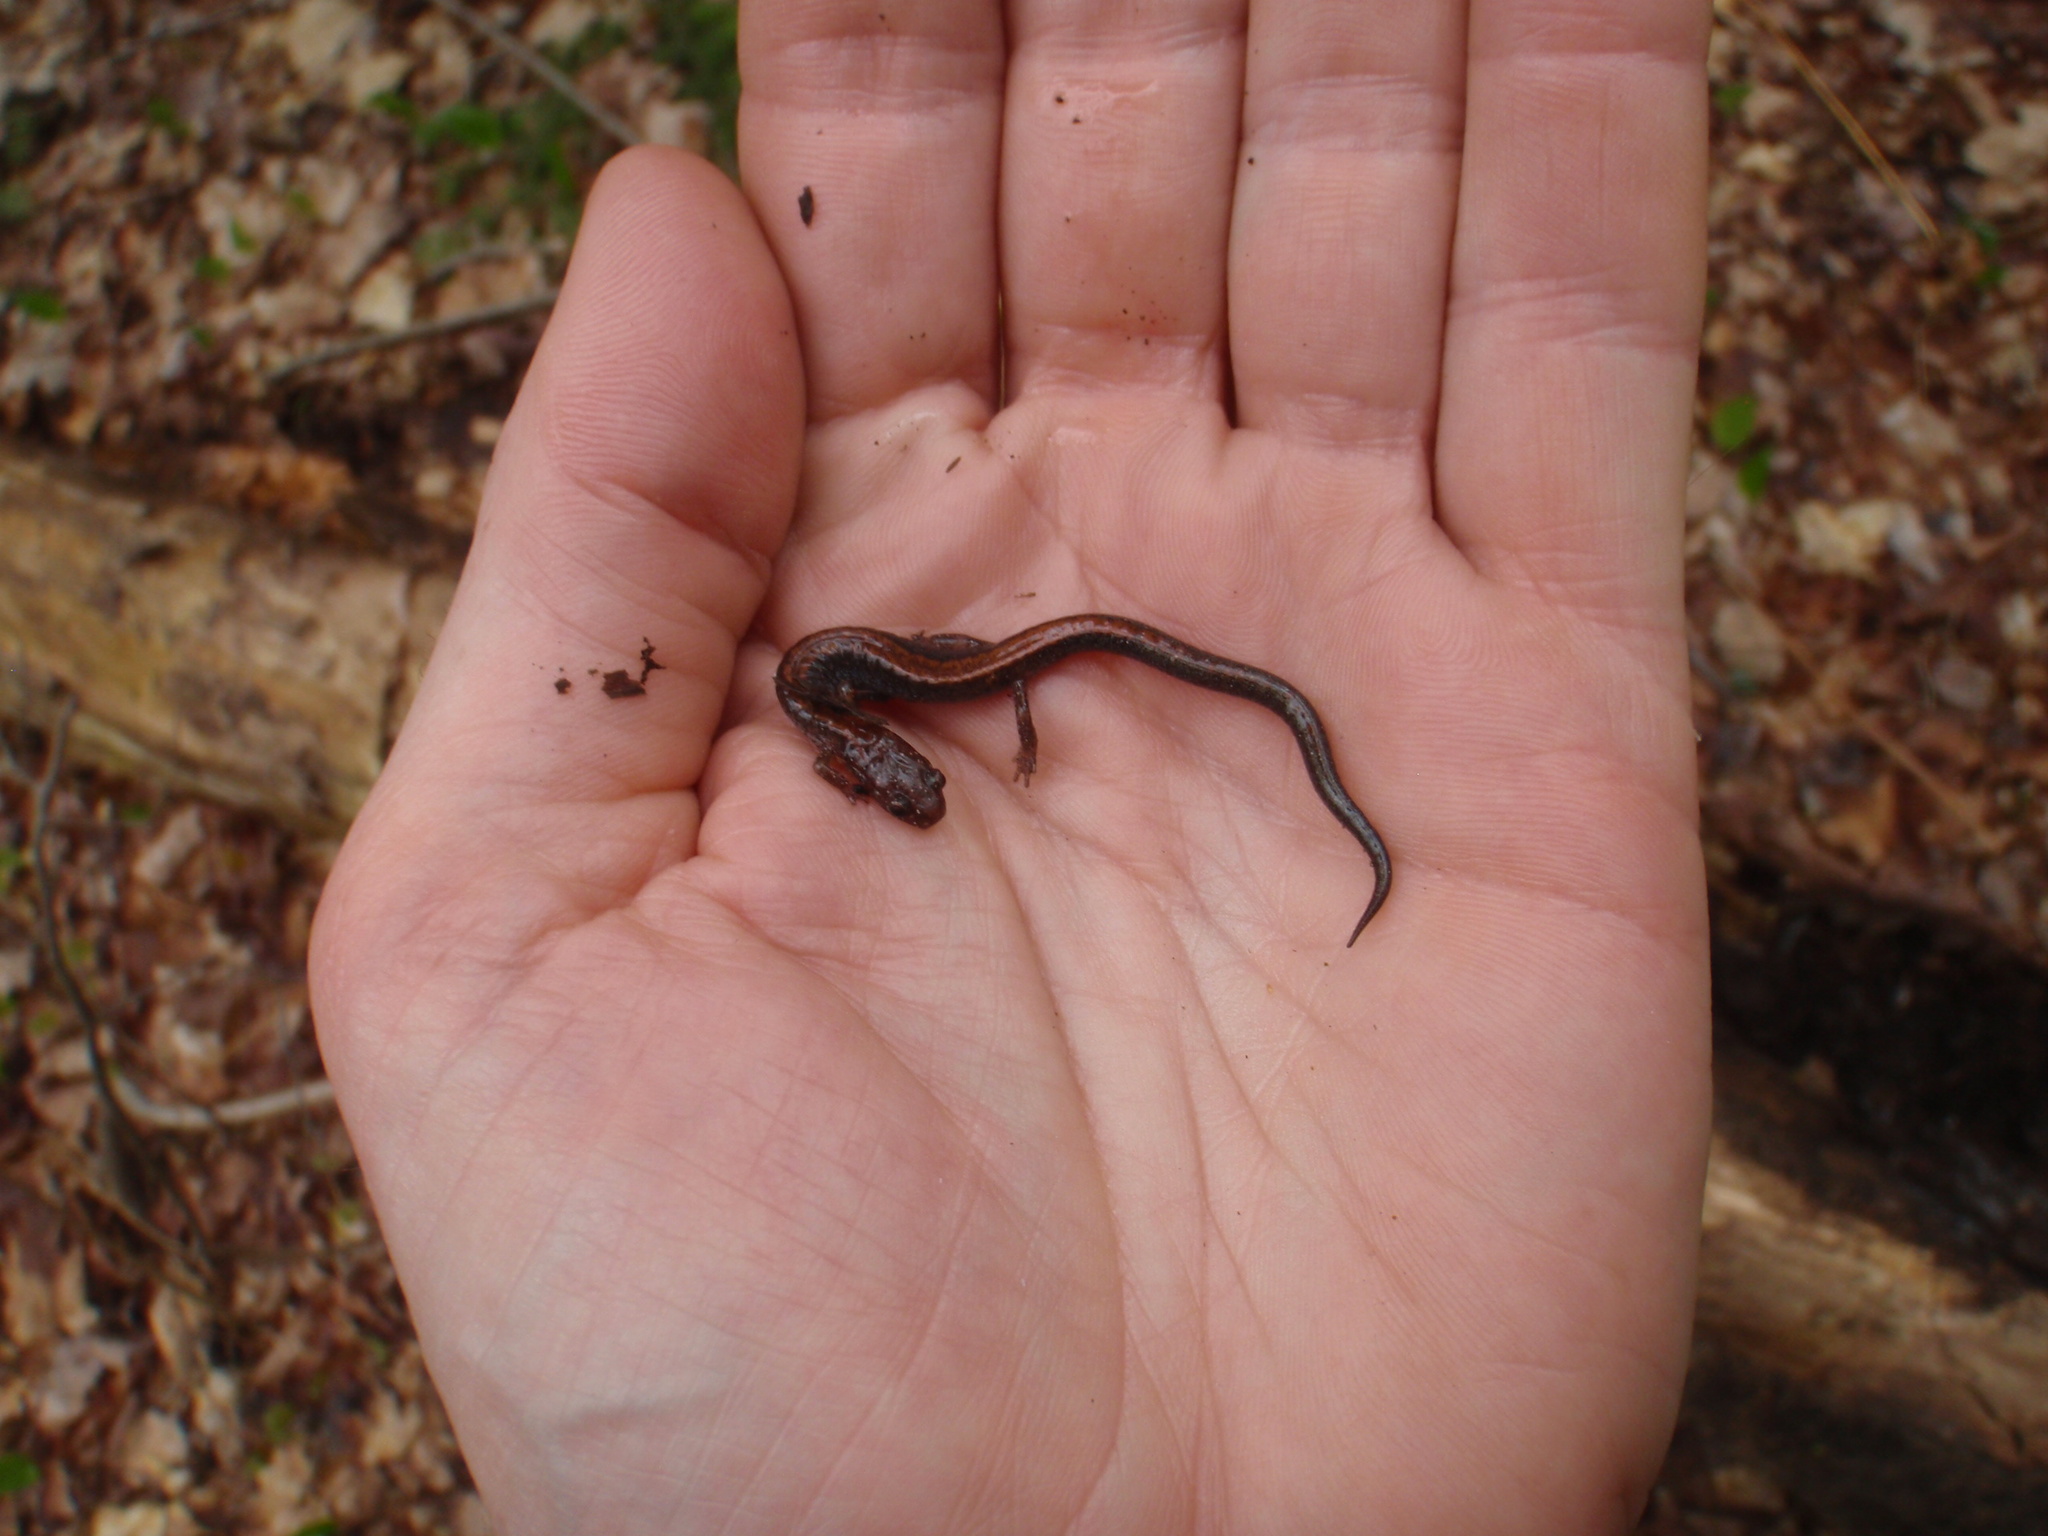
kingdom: Animalia
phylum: Chordata
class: Amphibia
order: Caudata
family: Plethodontidae
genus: Plethodon
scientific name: Plethodon cinereus
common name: Redback salamander
